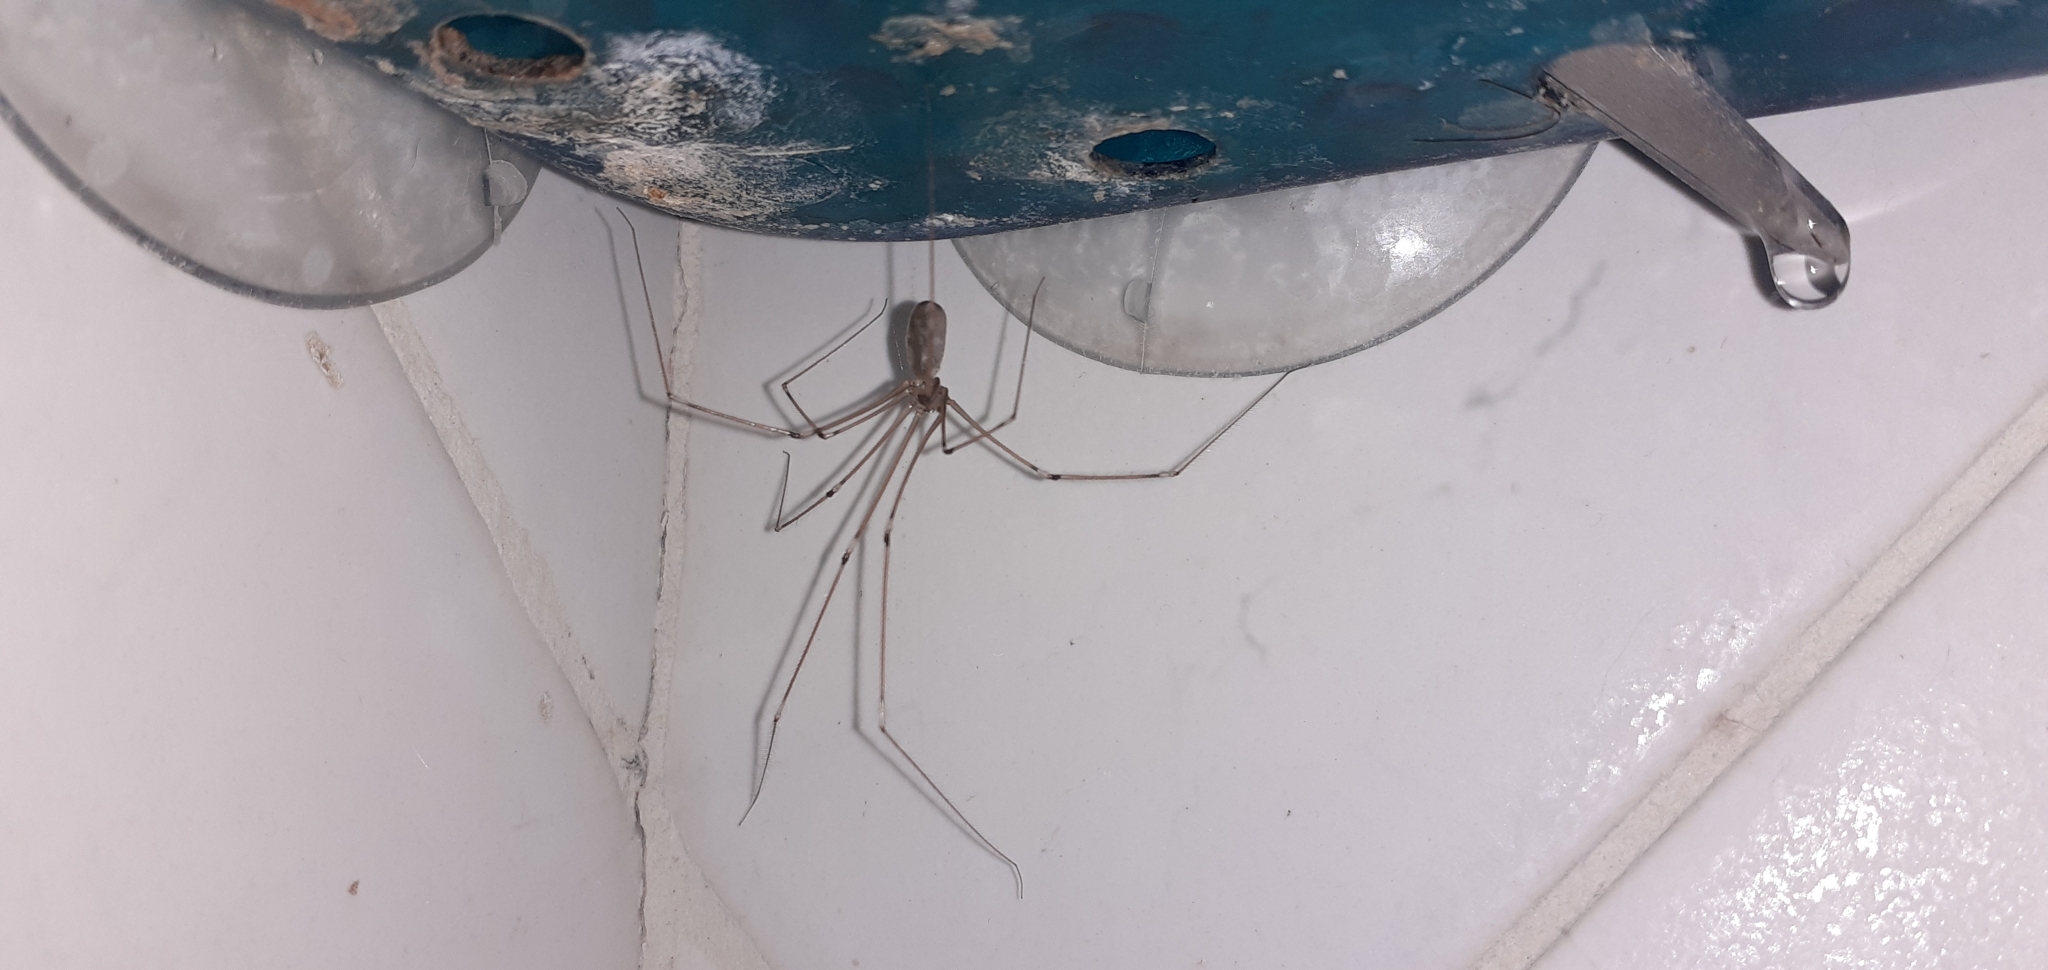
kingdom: Animalia
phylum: Arthropoda
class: Arachnida
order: Araneae
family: Pholcidae
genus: Pholcus
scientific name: Pholcus phalangioides
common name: Longbodied cellar spider
